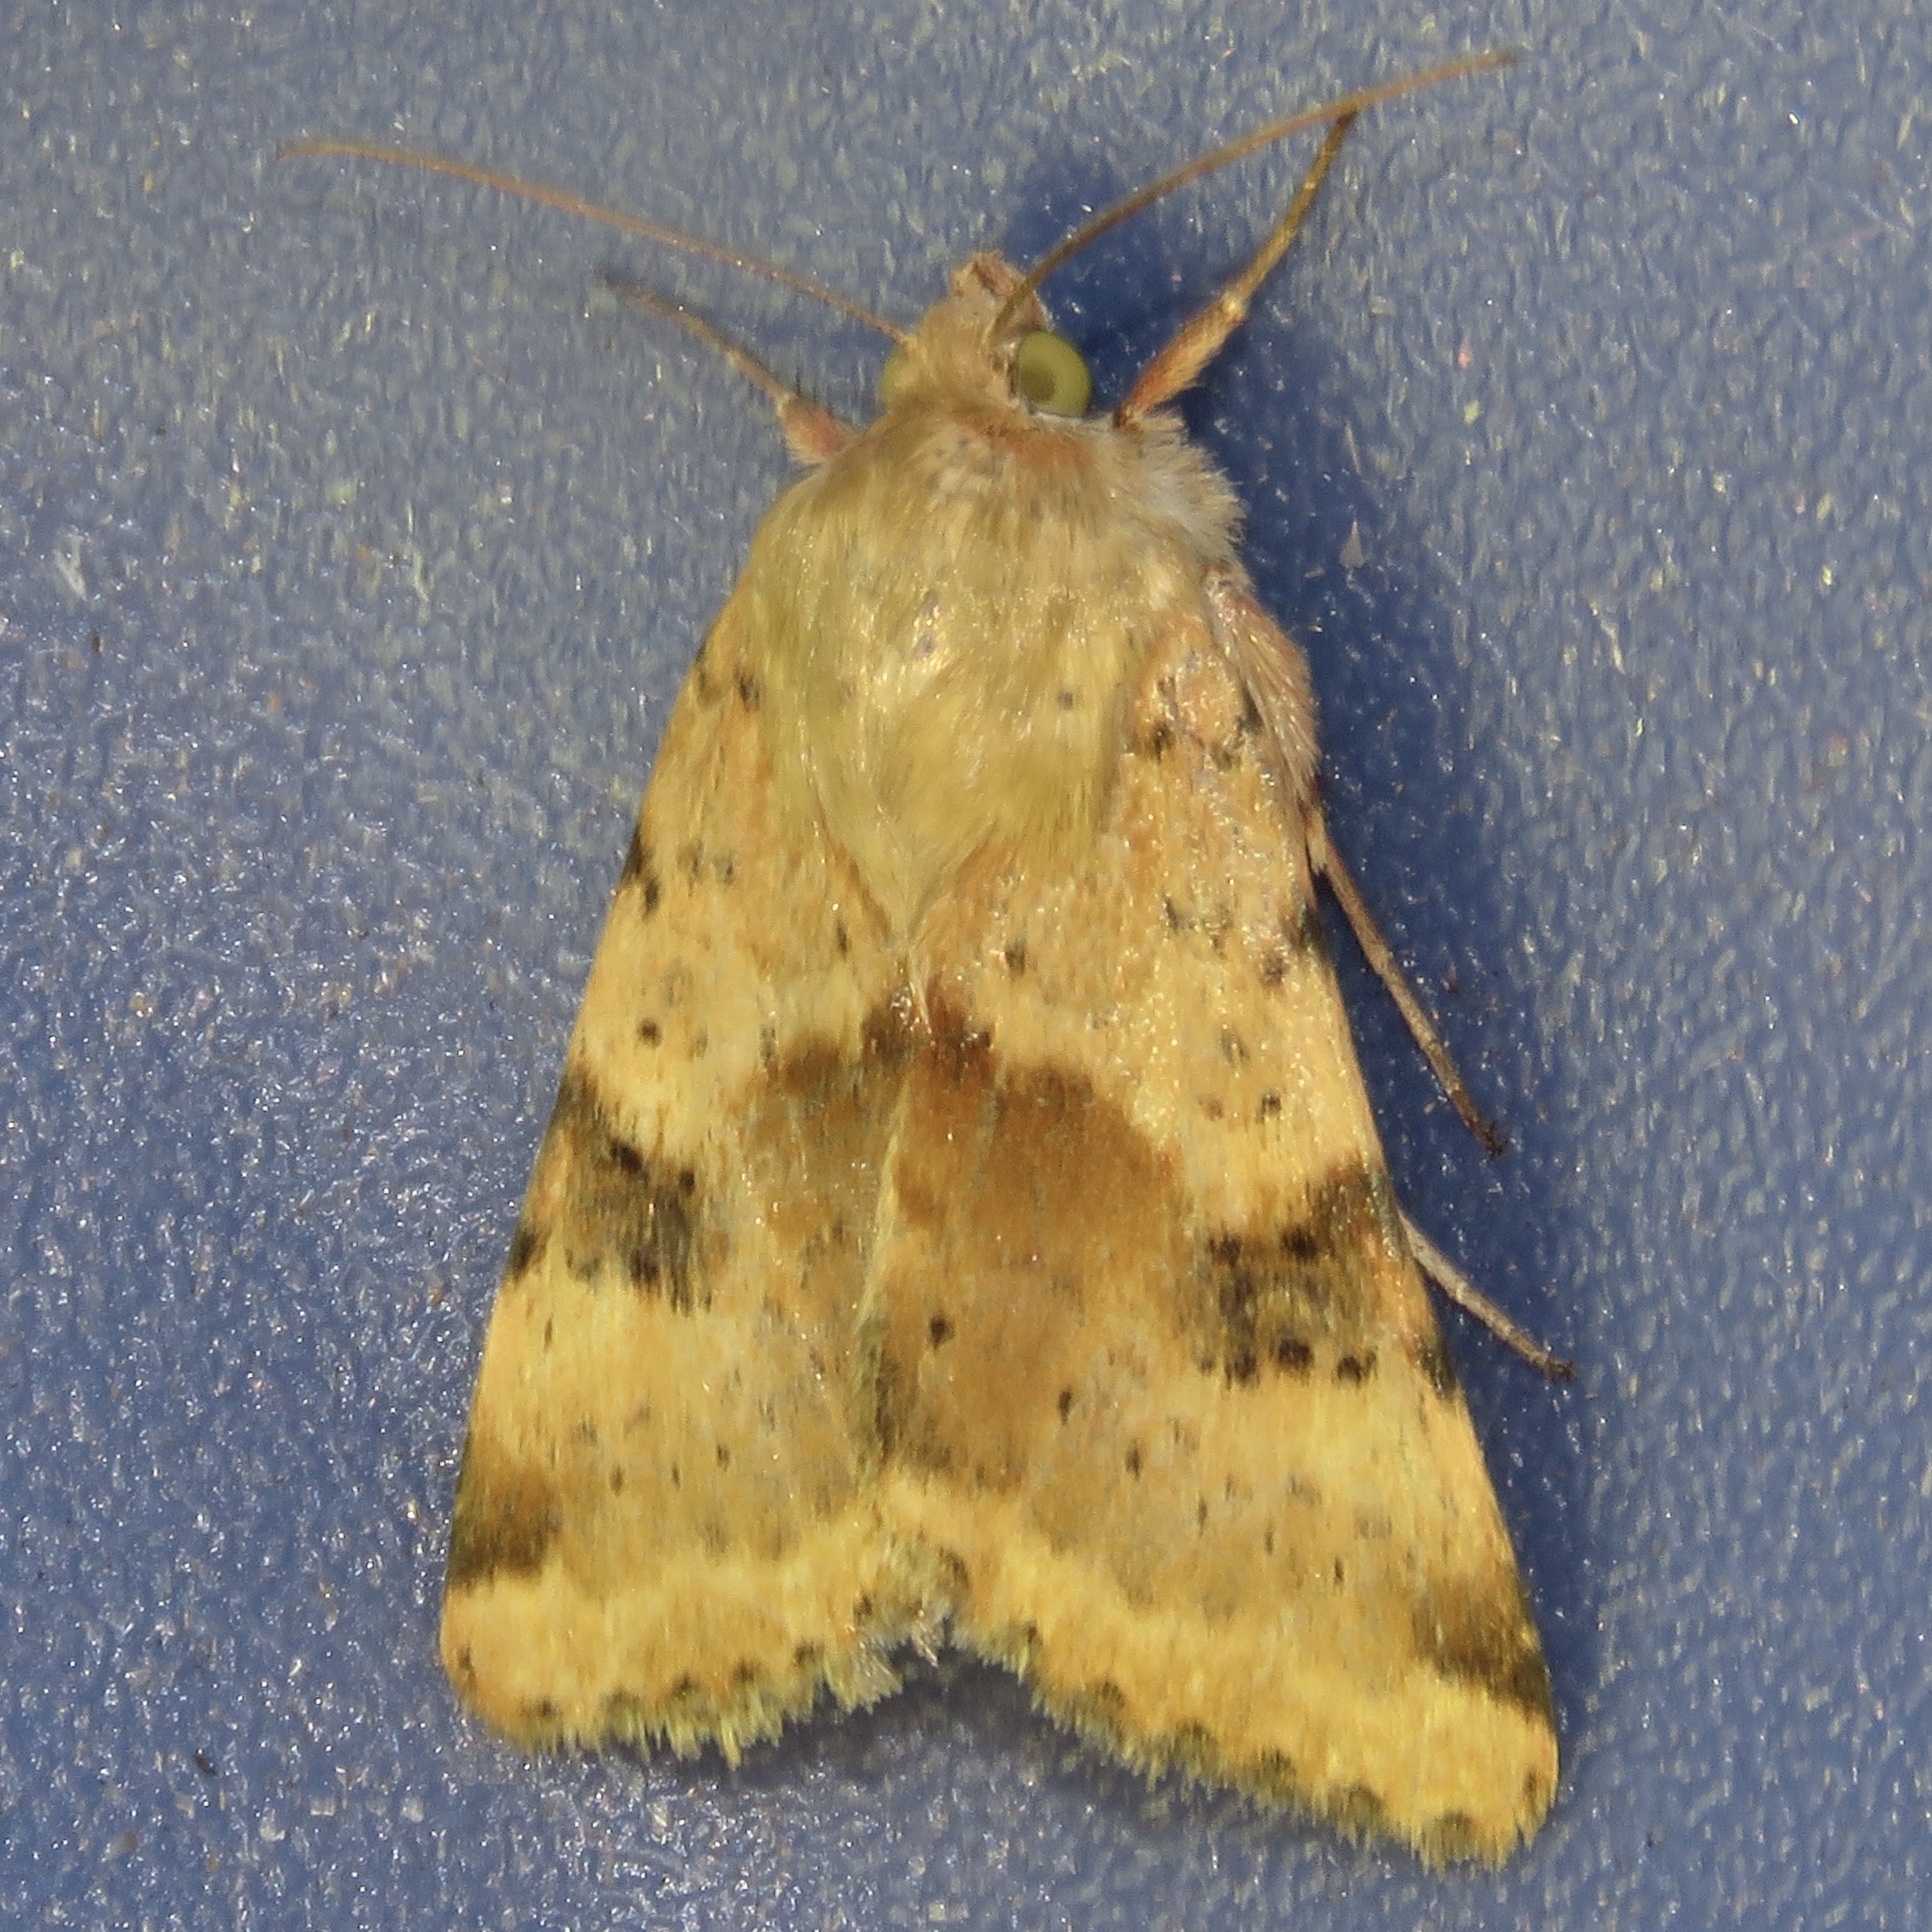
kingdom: Animalia
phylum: Arthropoda
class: Insecta
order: Lepidoptera
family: Noctuidae
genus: Heliothis
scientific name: Heliothis phloxiphaga
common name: Darker spotted straw moth
